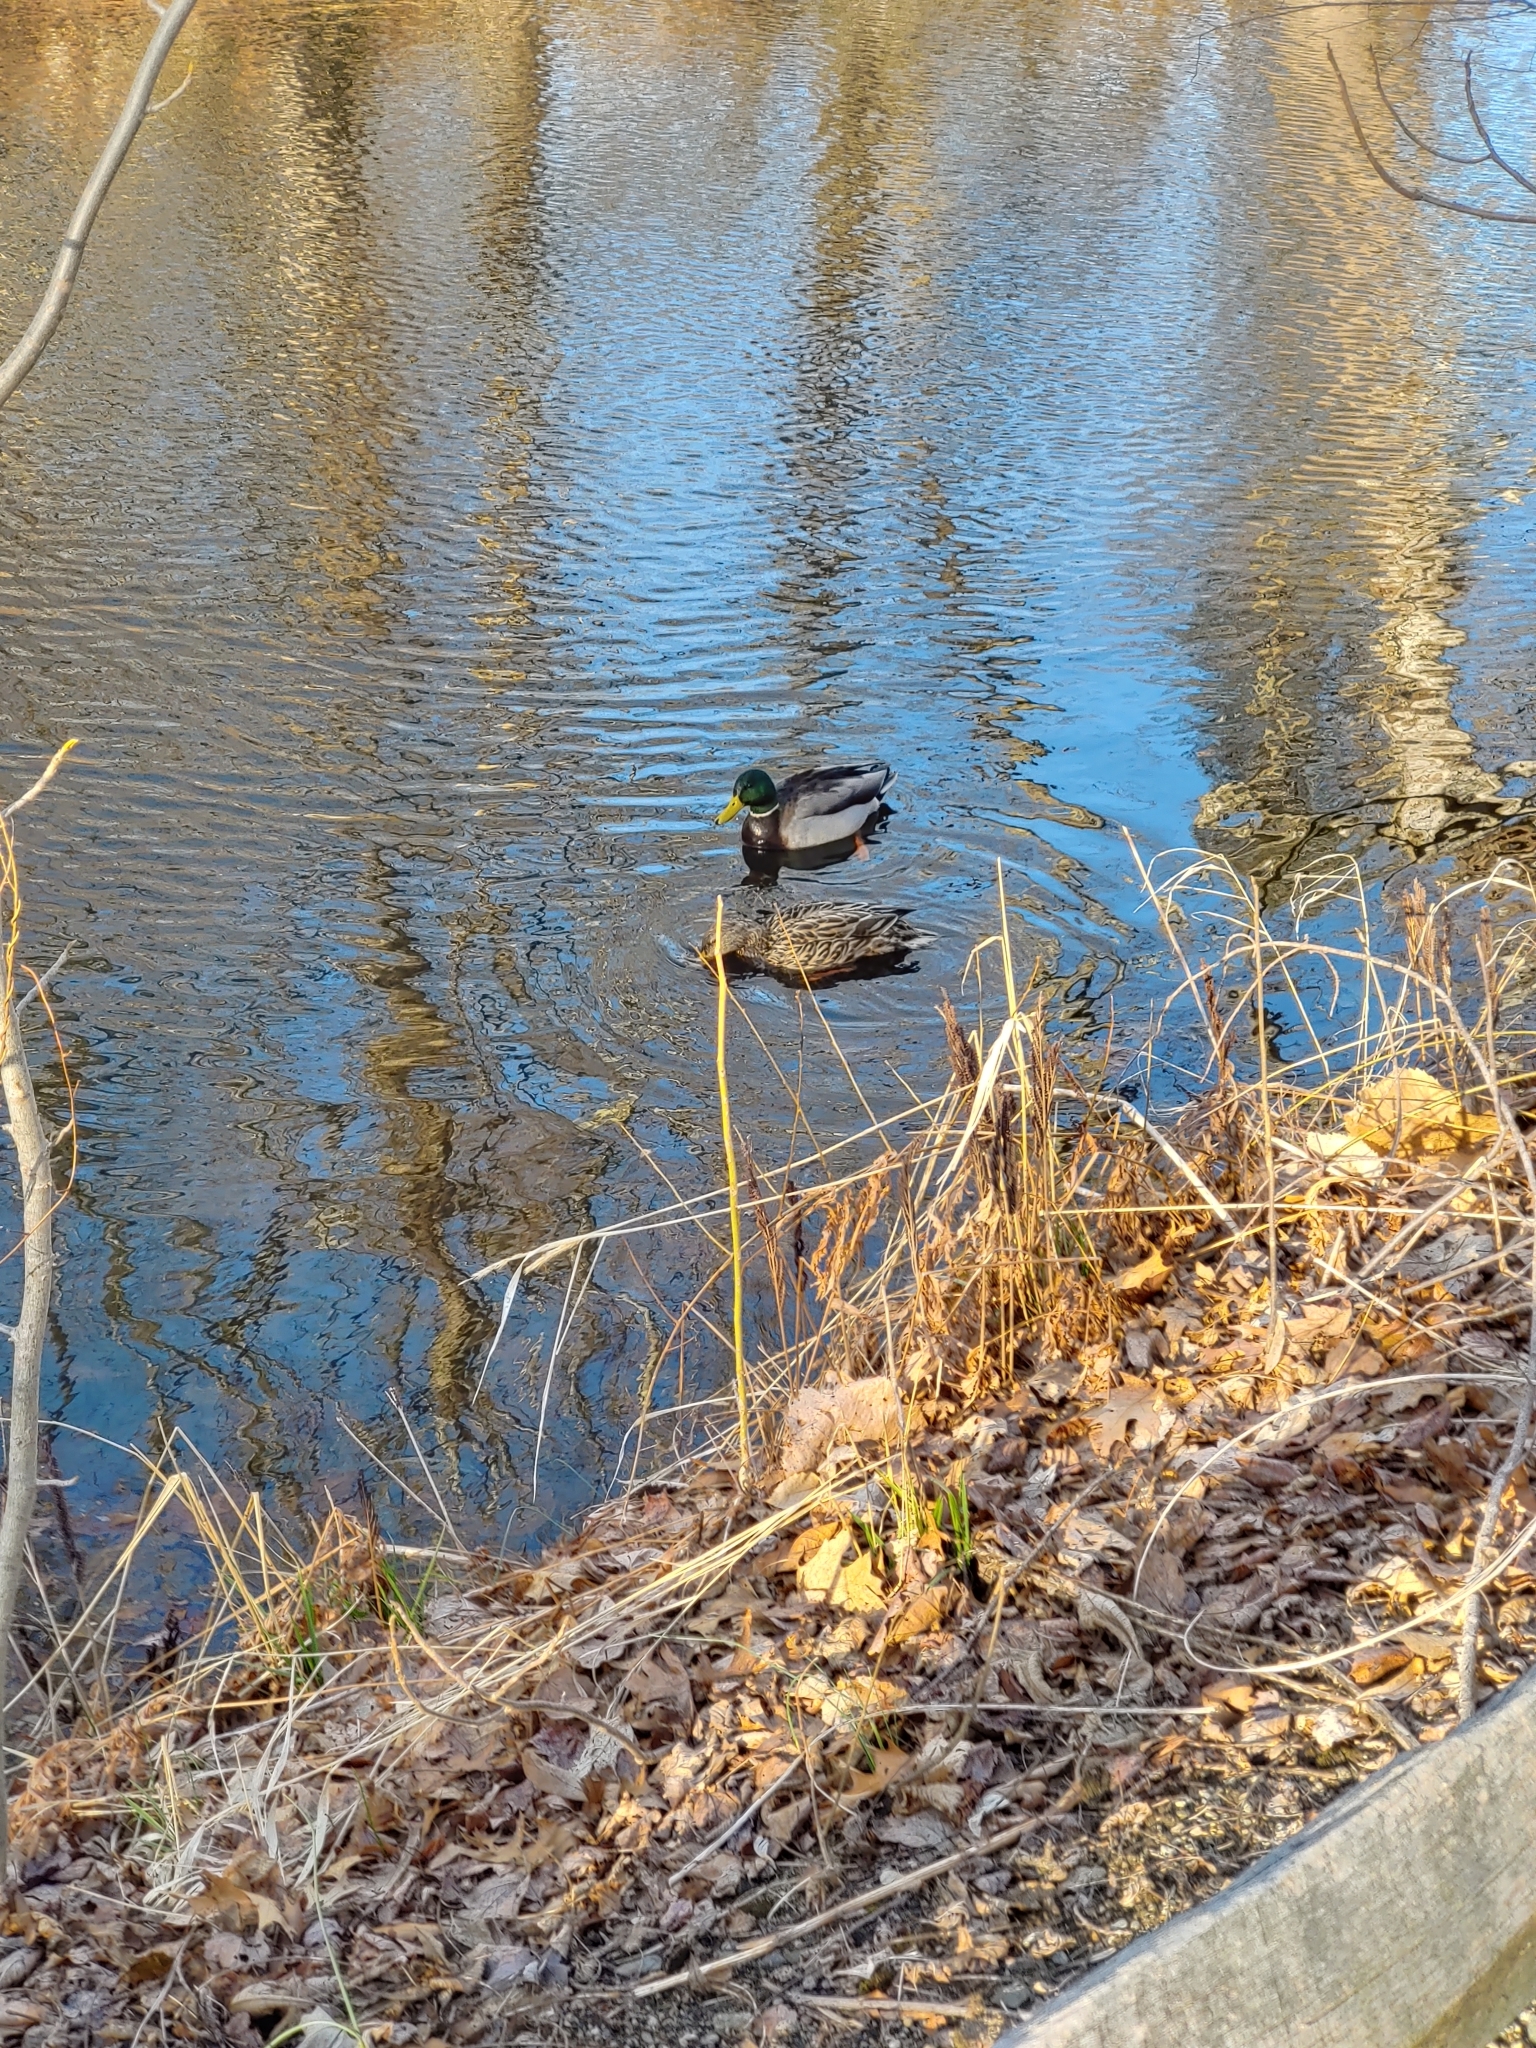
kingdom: Animalia
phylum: Chordata
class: Aves
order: Anseriformes
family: Anatidae
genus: Anas
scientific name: Anas platyrhynchos
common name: Mallard
